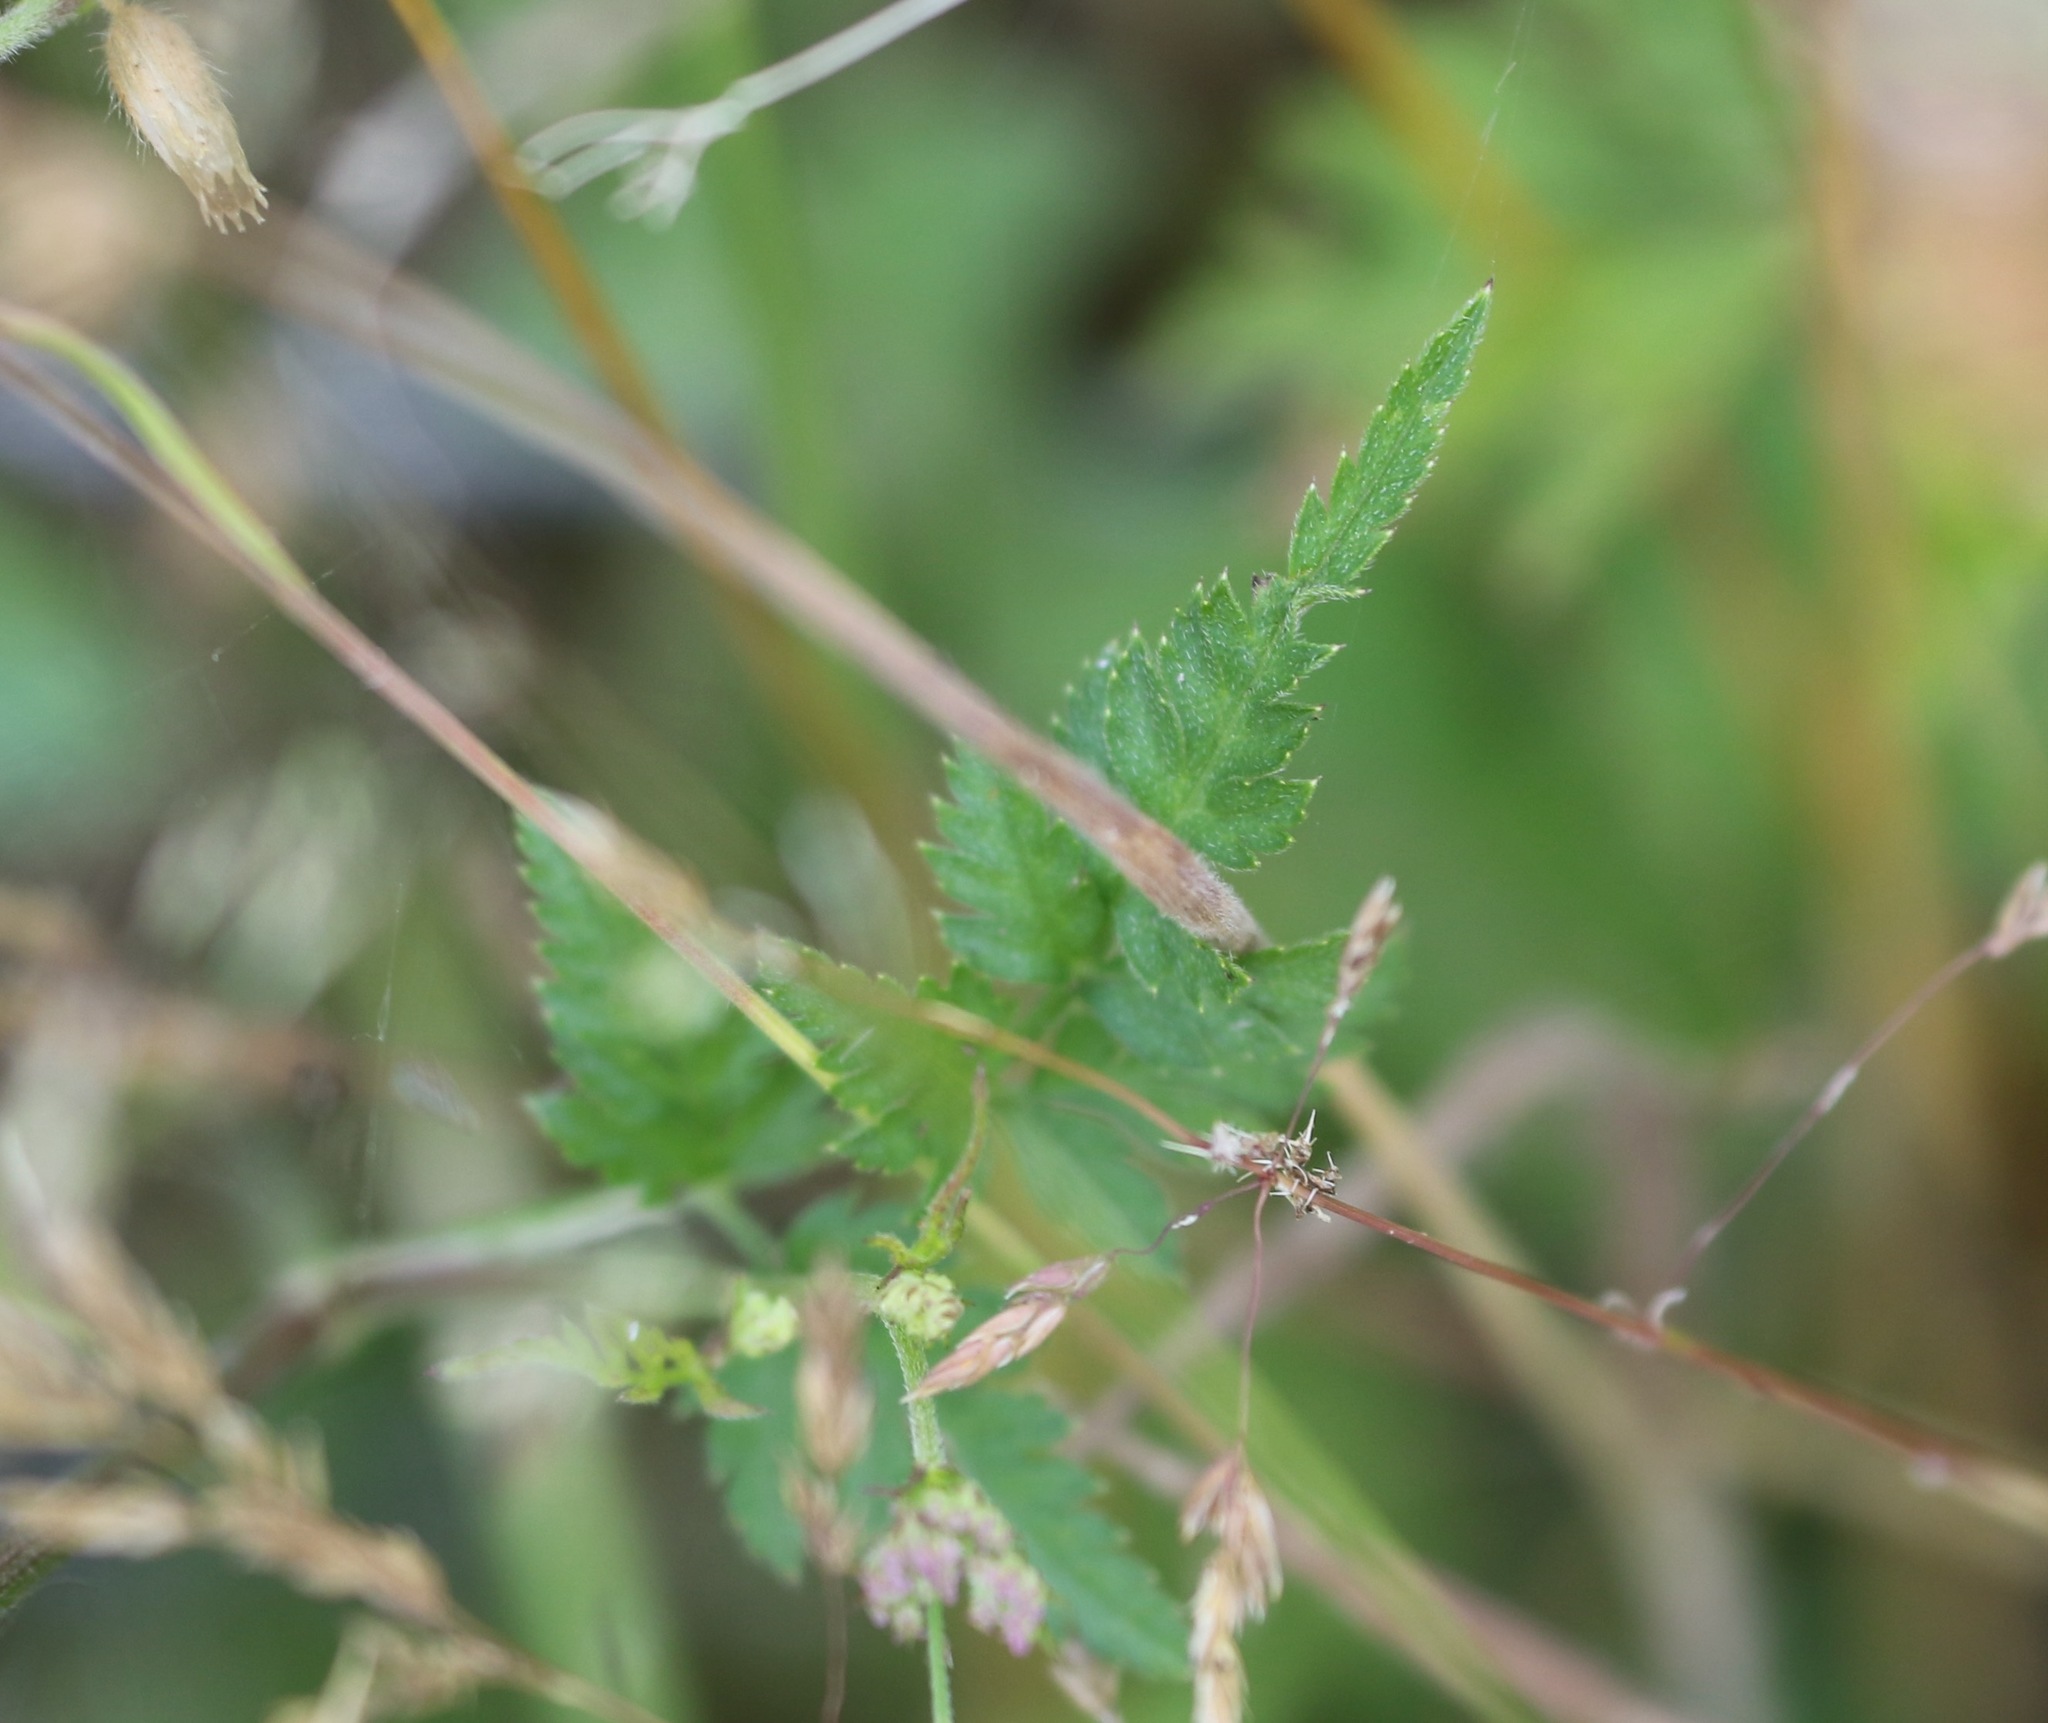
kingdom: Plantae
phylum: Tracheophyta
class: Magnoliopsida
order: Apiales
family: Apiaceae
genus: Torilis
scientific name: Torilis japonica
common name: Upright hedge-parsley
